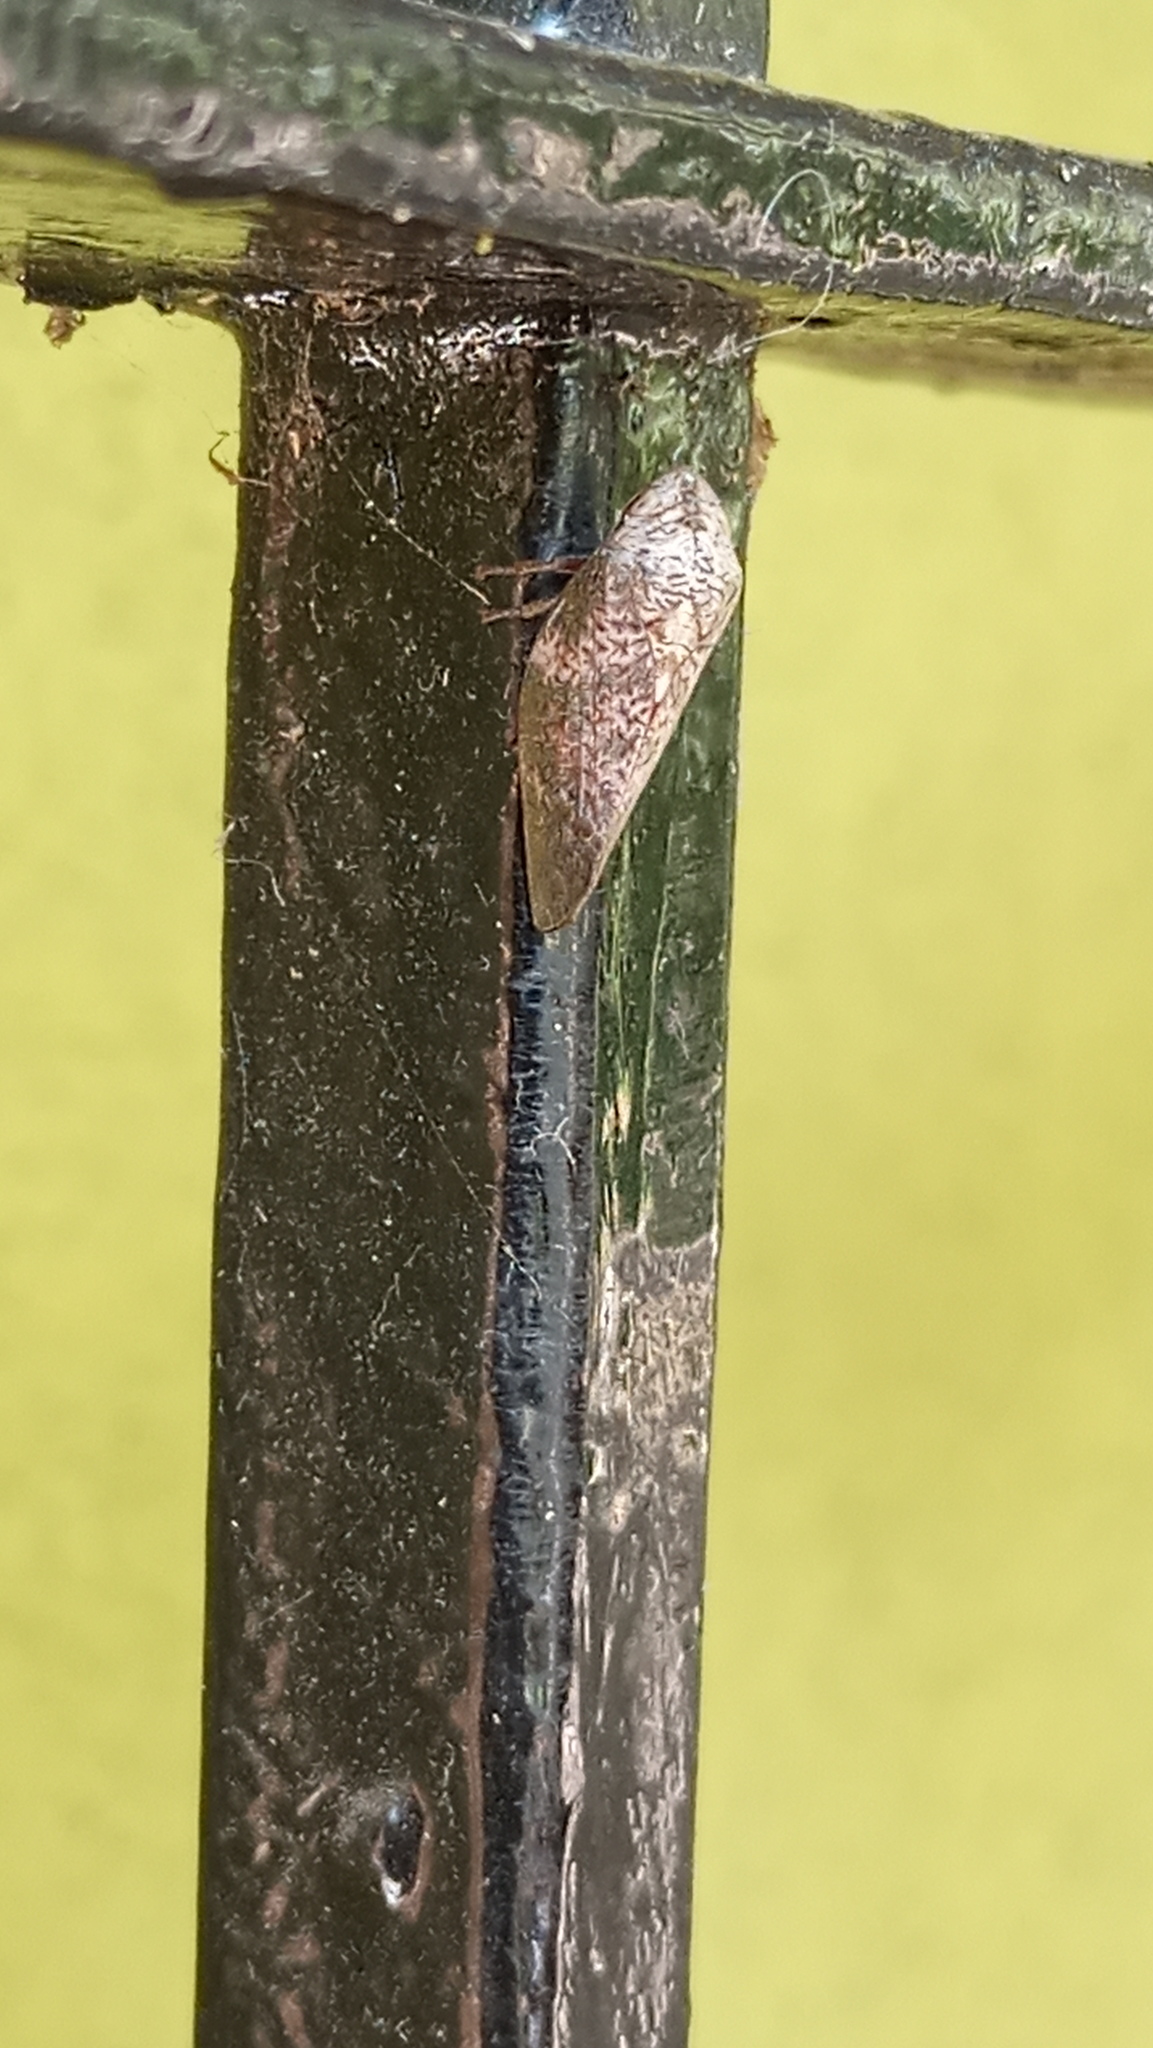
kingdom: Animalia
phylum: Arthropoda
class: Insecta
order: Hemiptera
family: Aphrophoridae
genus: Cephisus
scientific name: Cephisus siccifolius
